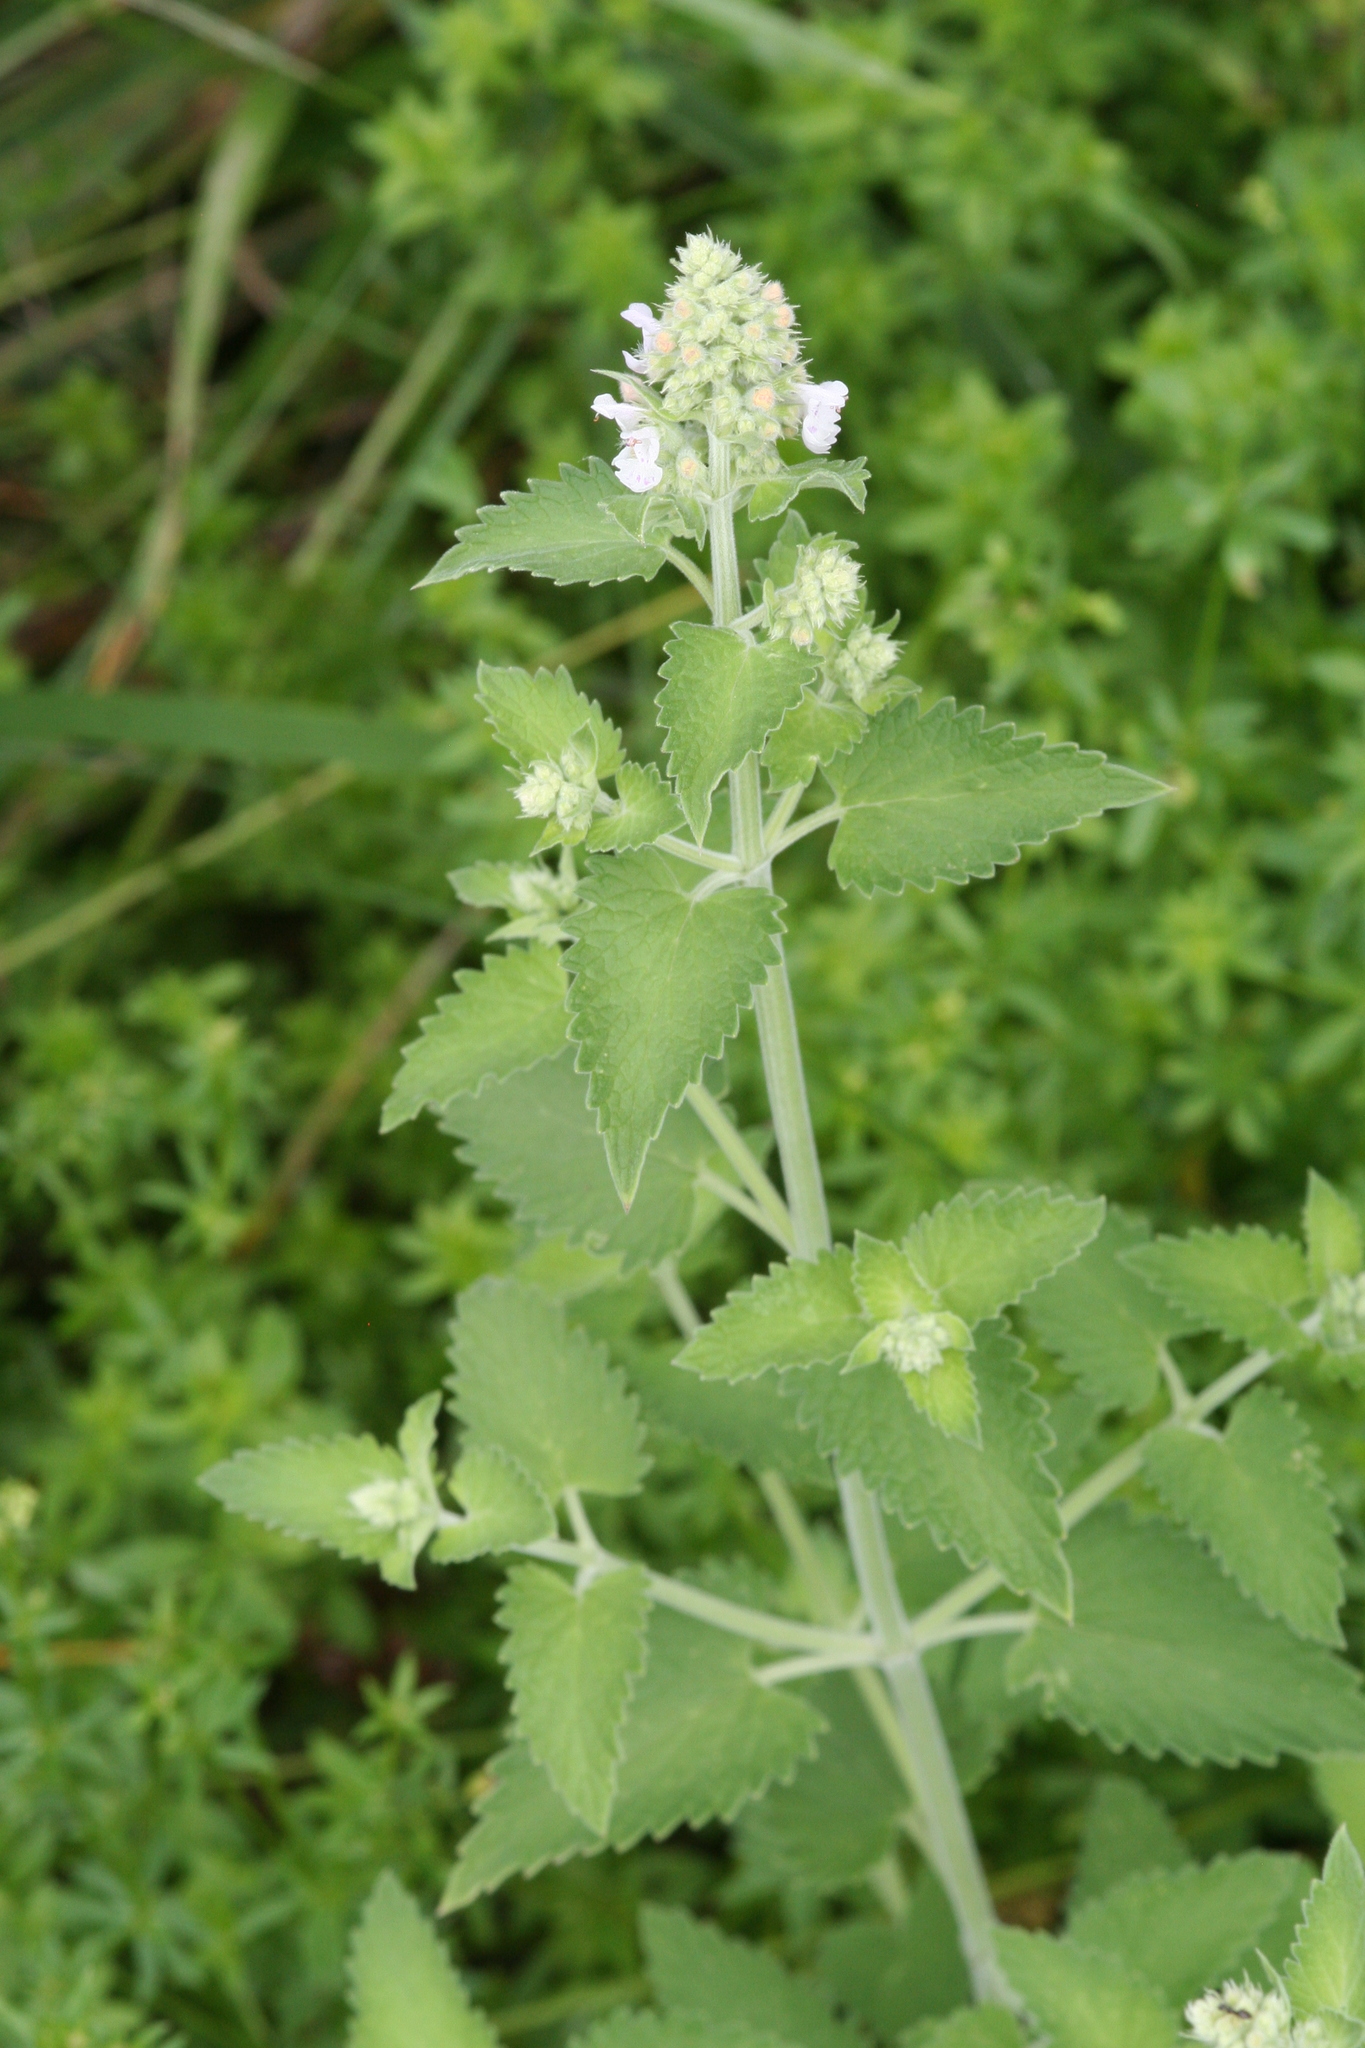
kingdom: Plantae
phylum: Tracheophyta
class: Magnoliopsida
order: Lamiales
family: Lamiaceae
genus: Nepeta
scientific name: Nepeta cataria
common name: Catnip
